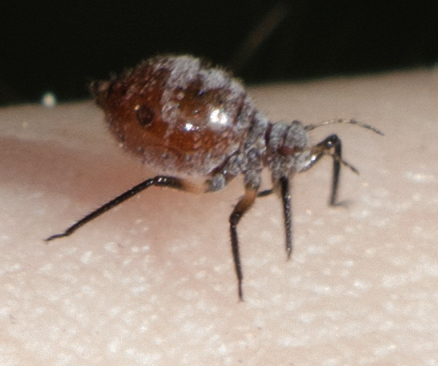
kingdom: Animalia
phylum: Arthropoda
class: Insecta
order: Hemiptera
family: Aphididae
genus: Cinara
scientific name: Cinara
